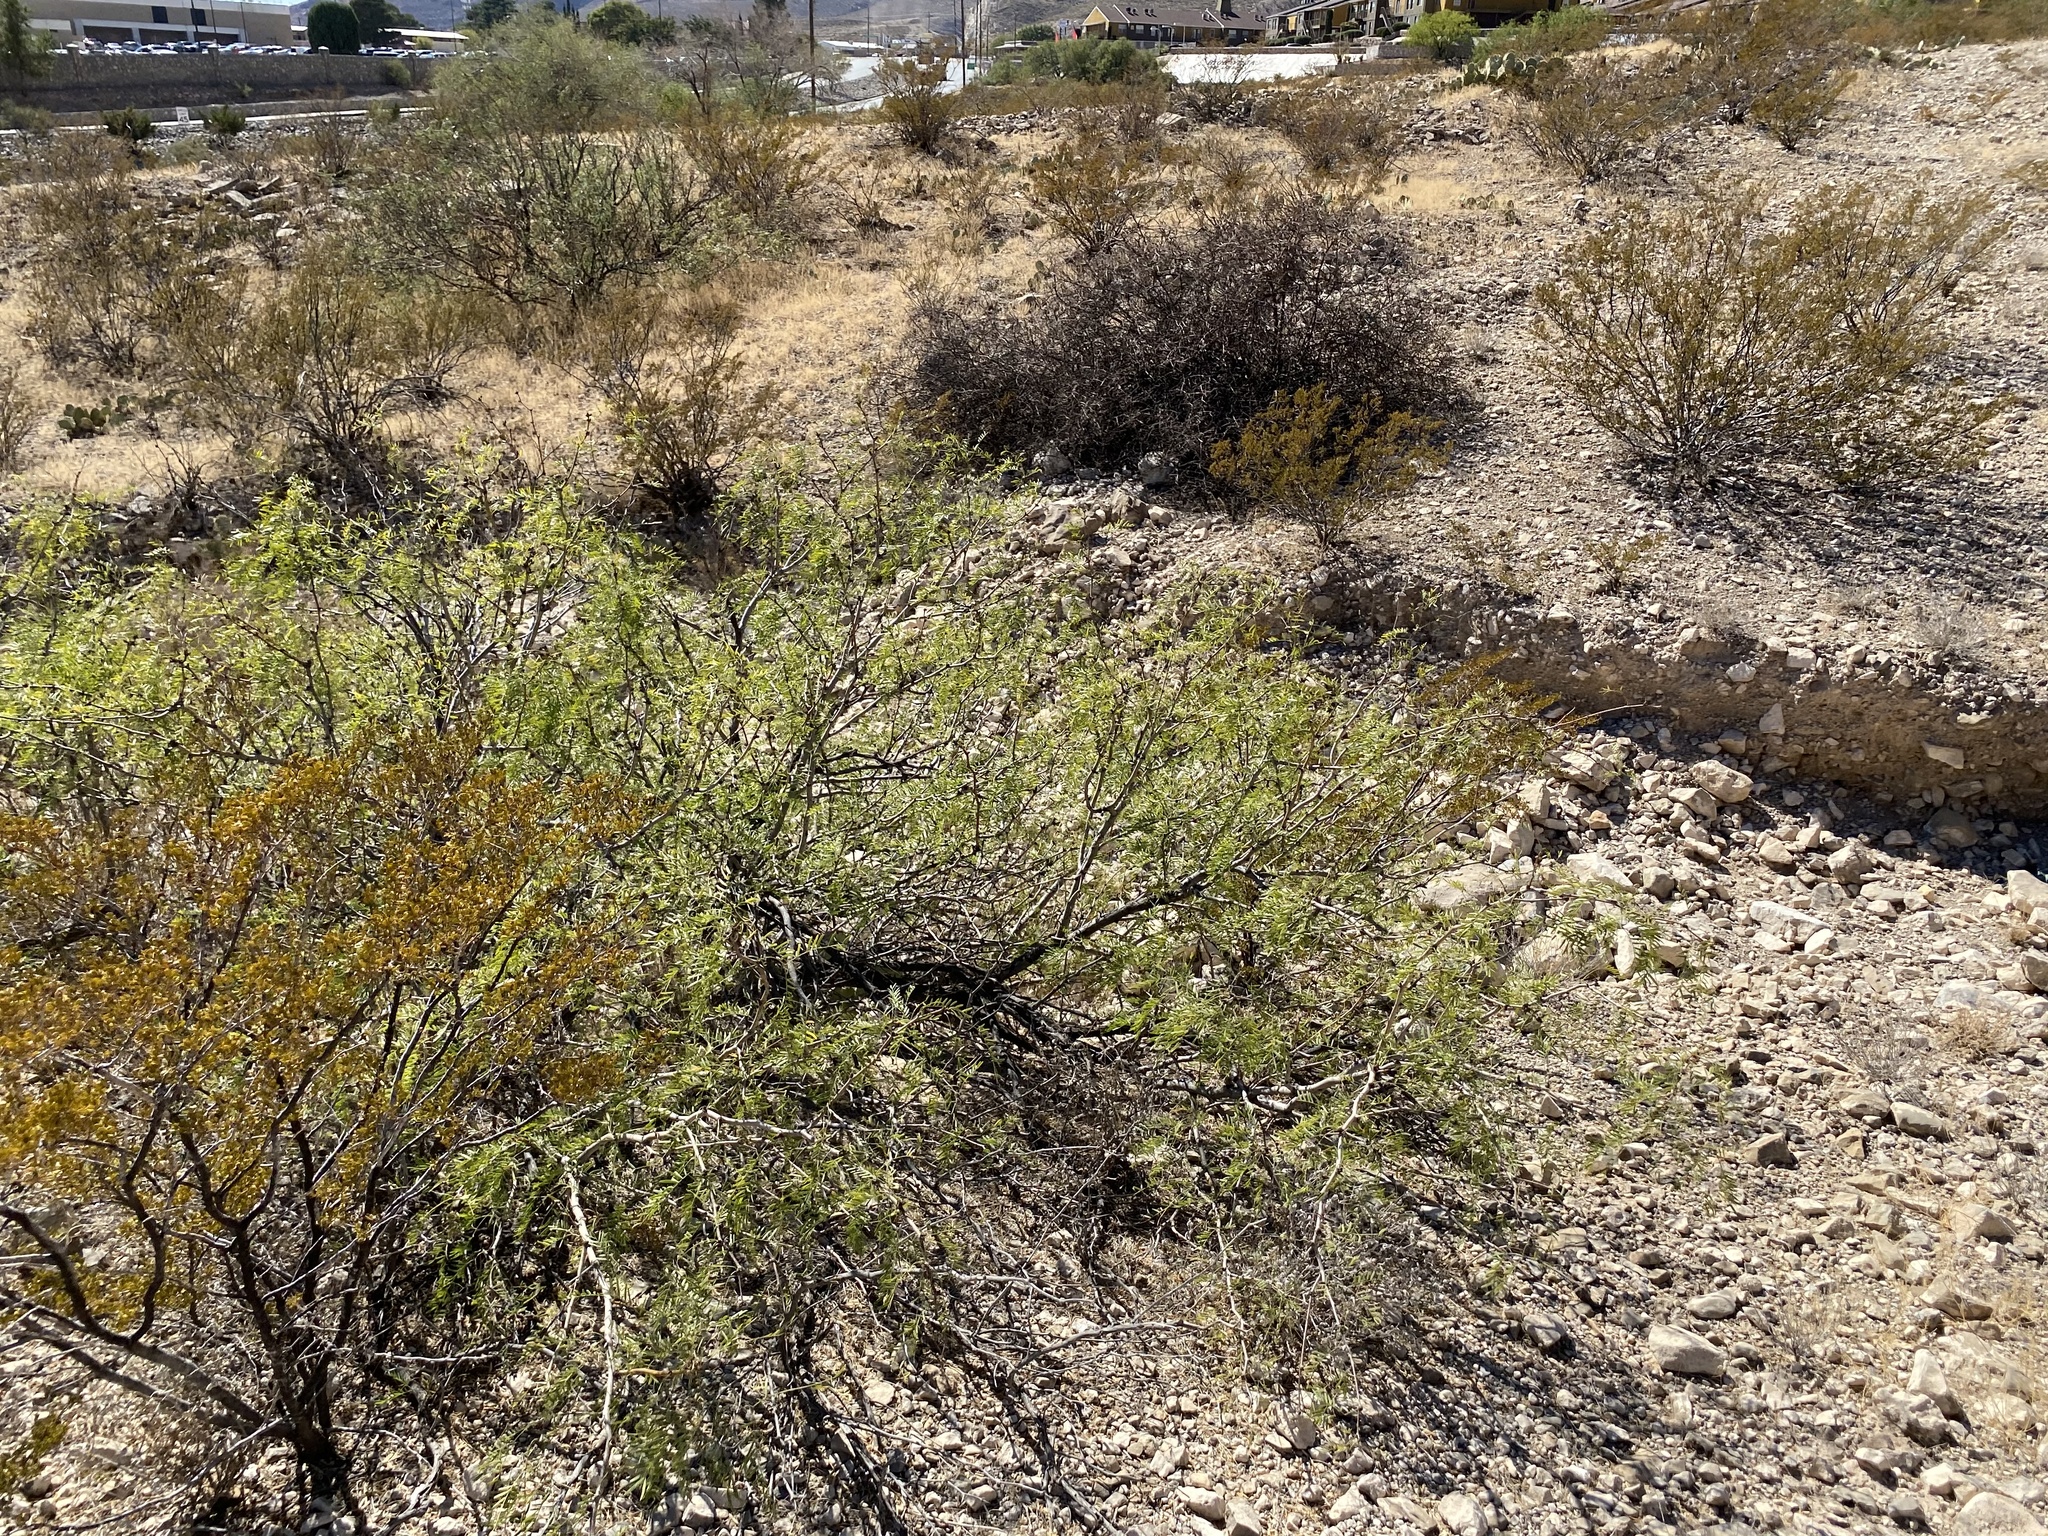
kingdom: Plantae
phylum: Tracheophyta
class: Magnoliopsida
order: Fabales
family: Fabaceae
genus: Prosopis
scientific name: Prosopis glandulosa
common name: Honey mesquite
